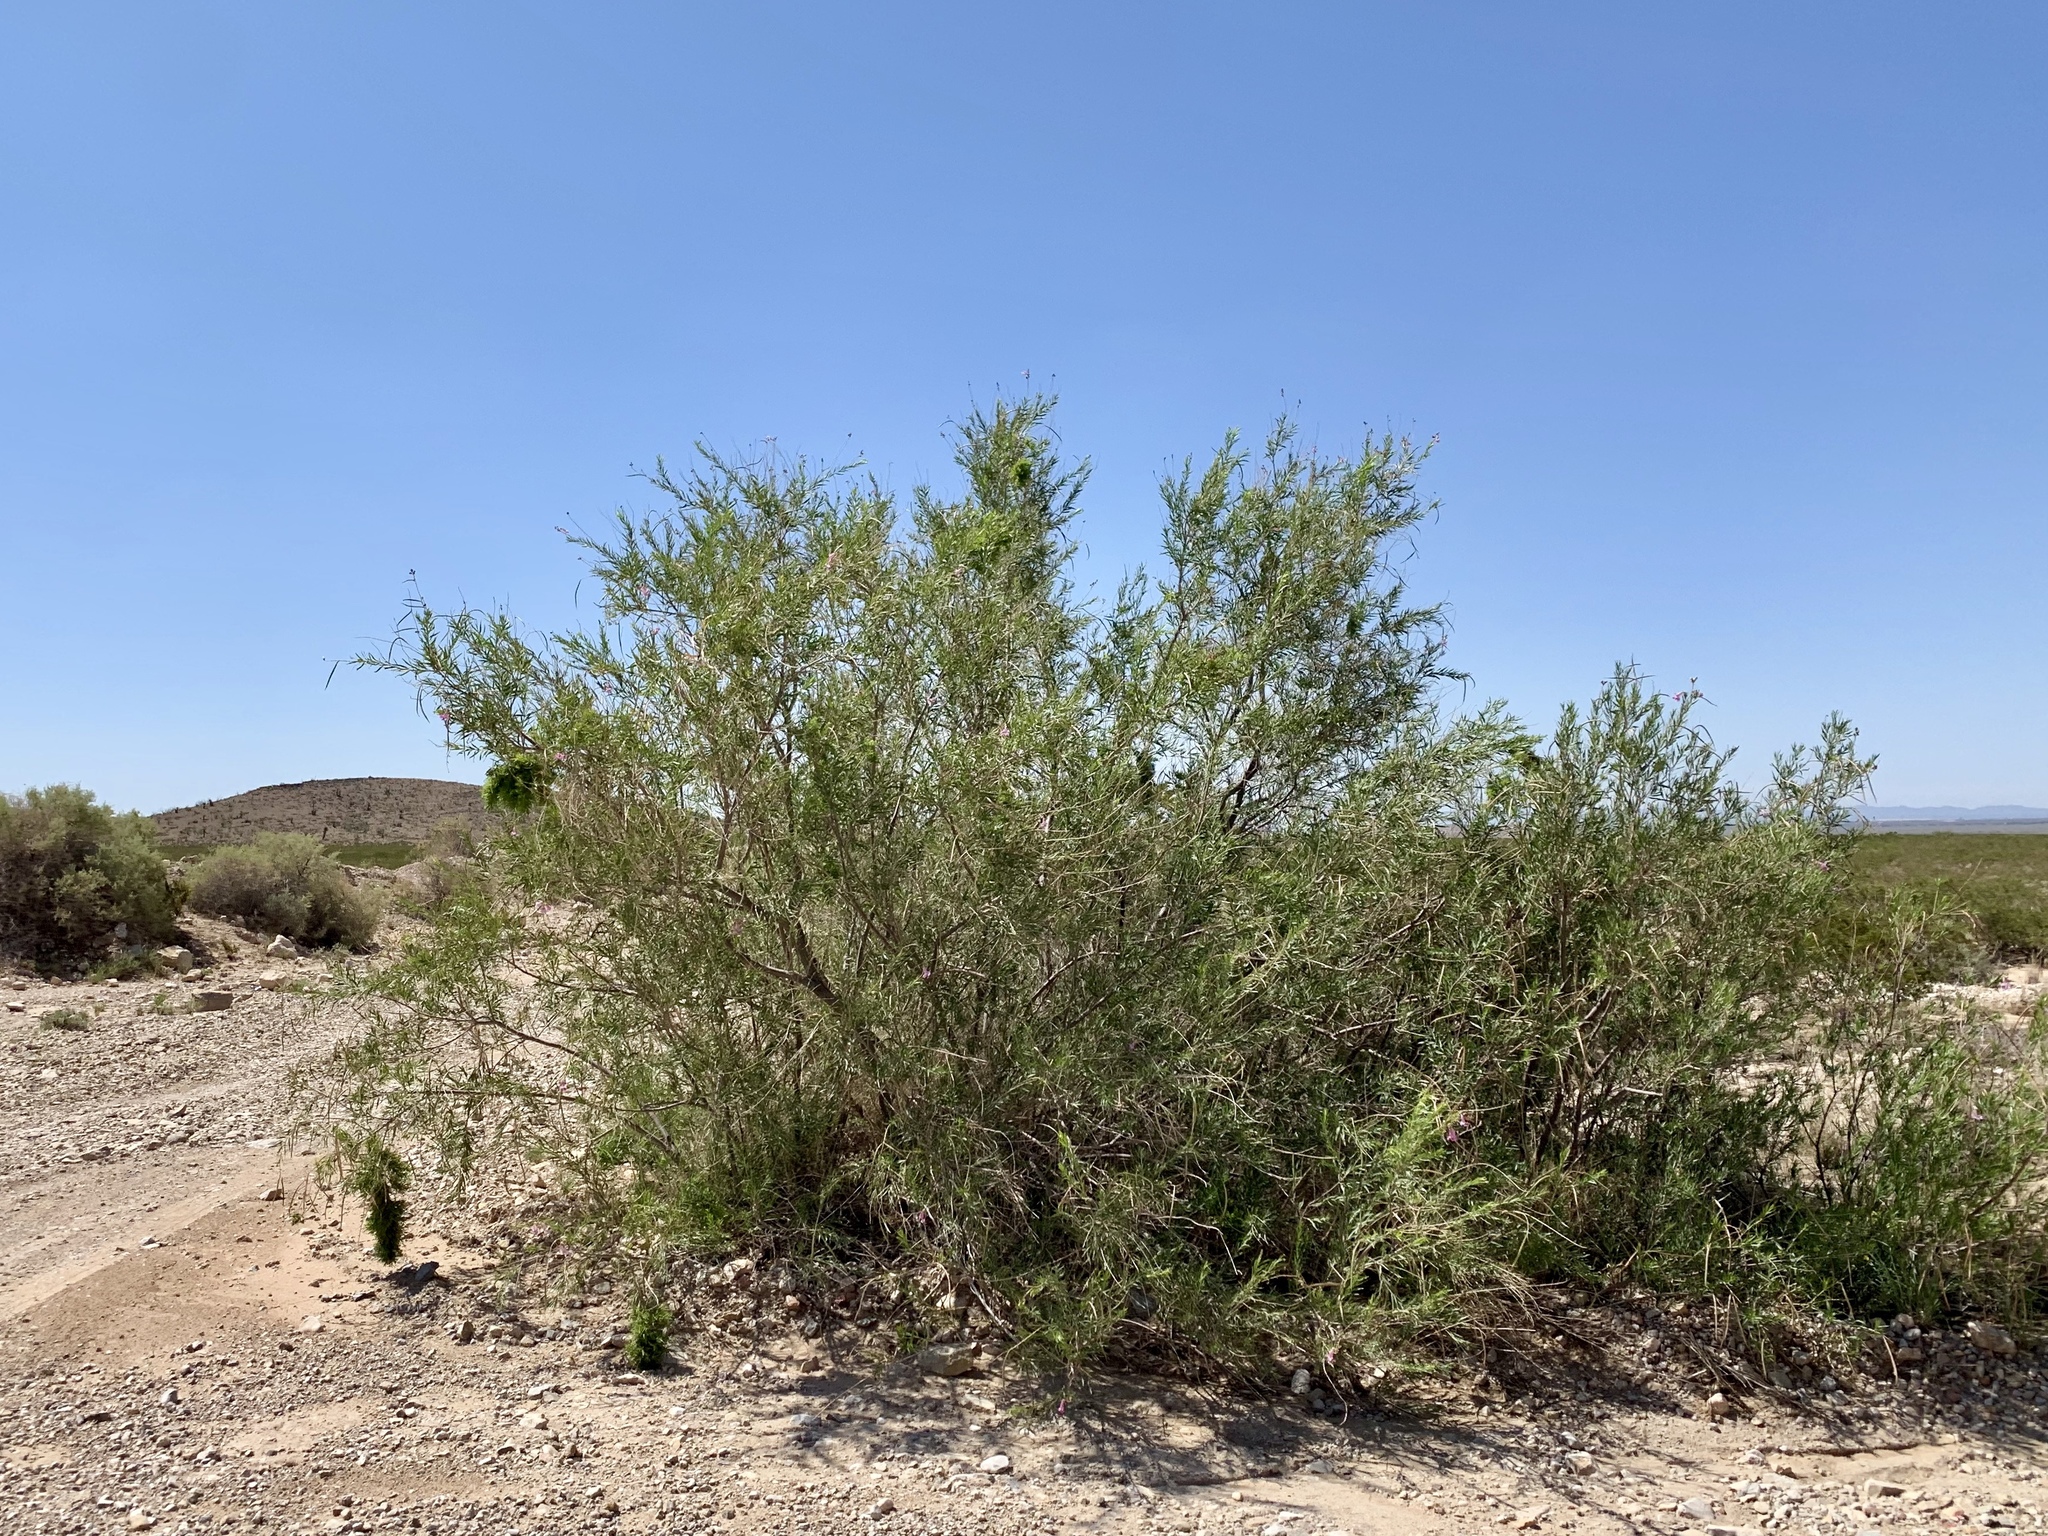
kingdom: Plantae
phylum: Tracheophyta
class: Magnoliopsida
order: Lamiales
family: Bignoniaceae
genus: Chilopsis
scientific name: Chilopsis linearis
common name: Desert-willow
